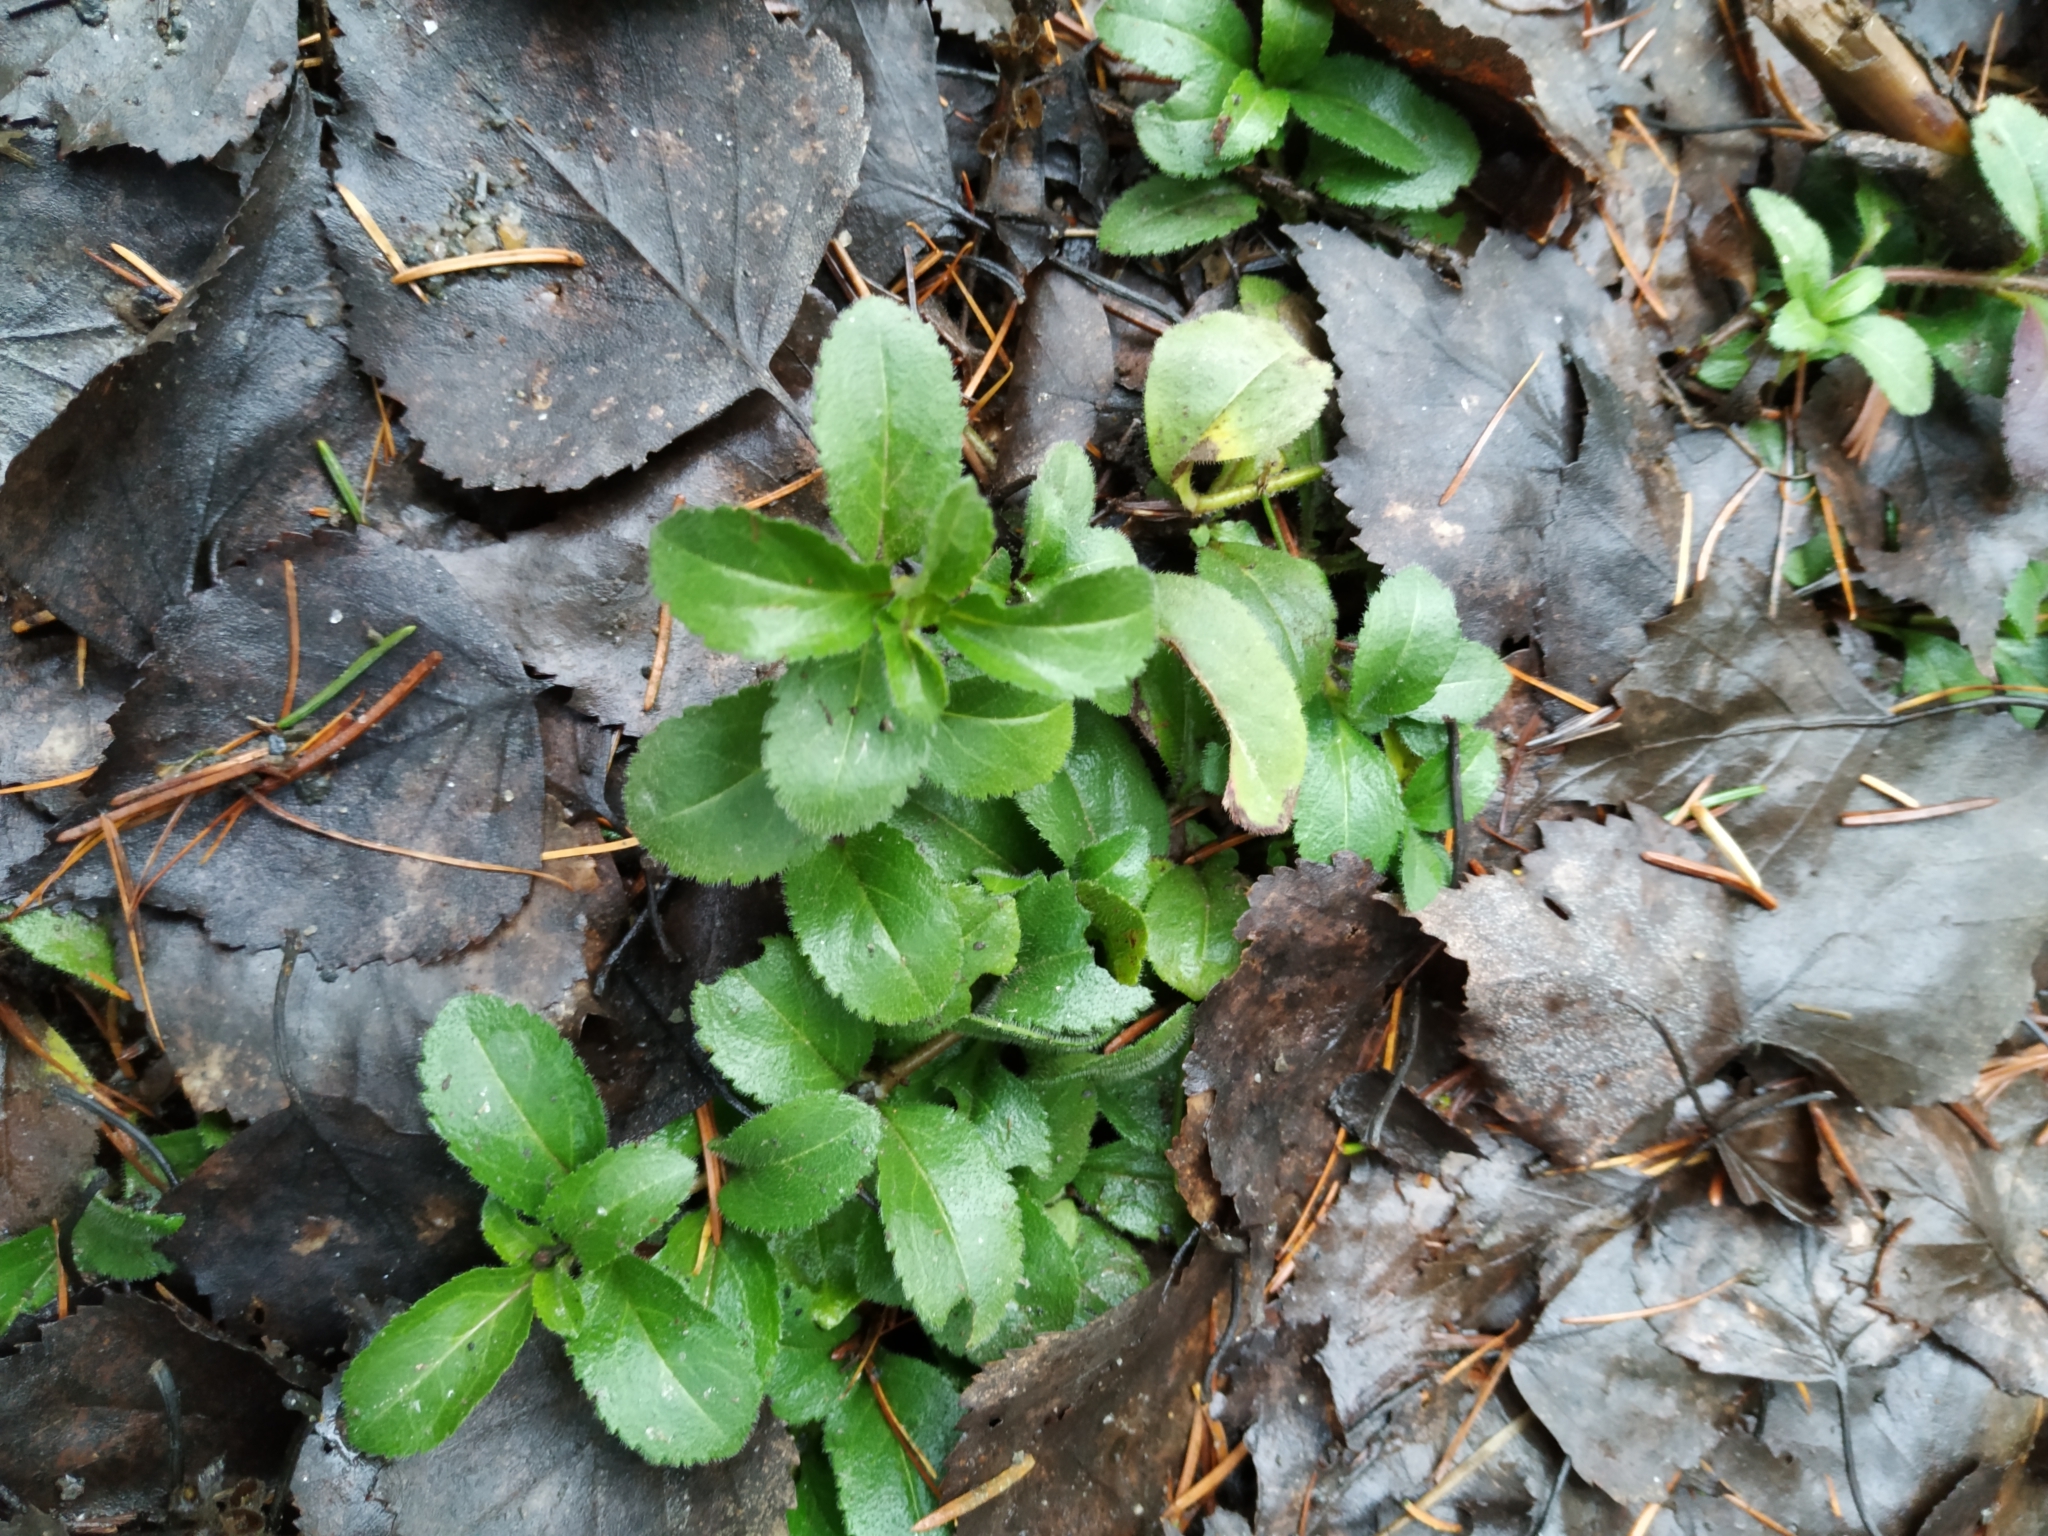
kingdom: Plantae
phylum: Tracheophyta
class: Magnoliopsida
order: Lamiales
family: Plantaginaceae
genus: Veronica
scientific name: Veronica officinalis
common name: Common speedwell
